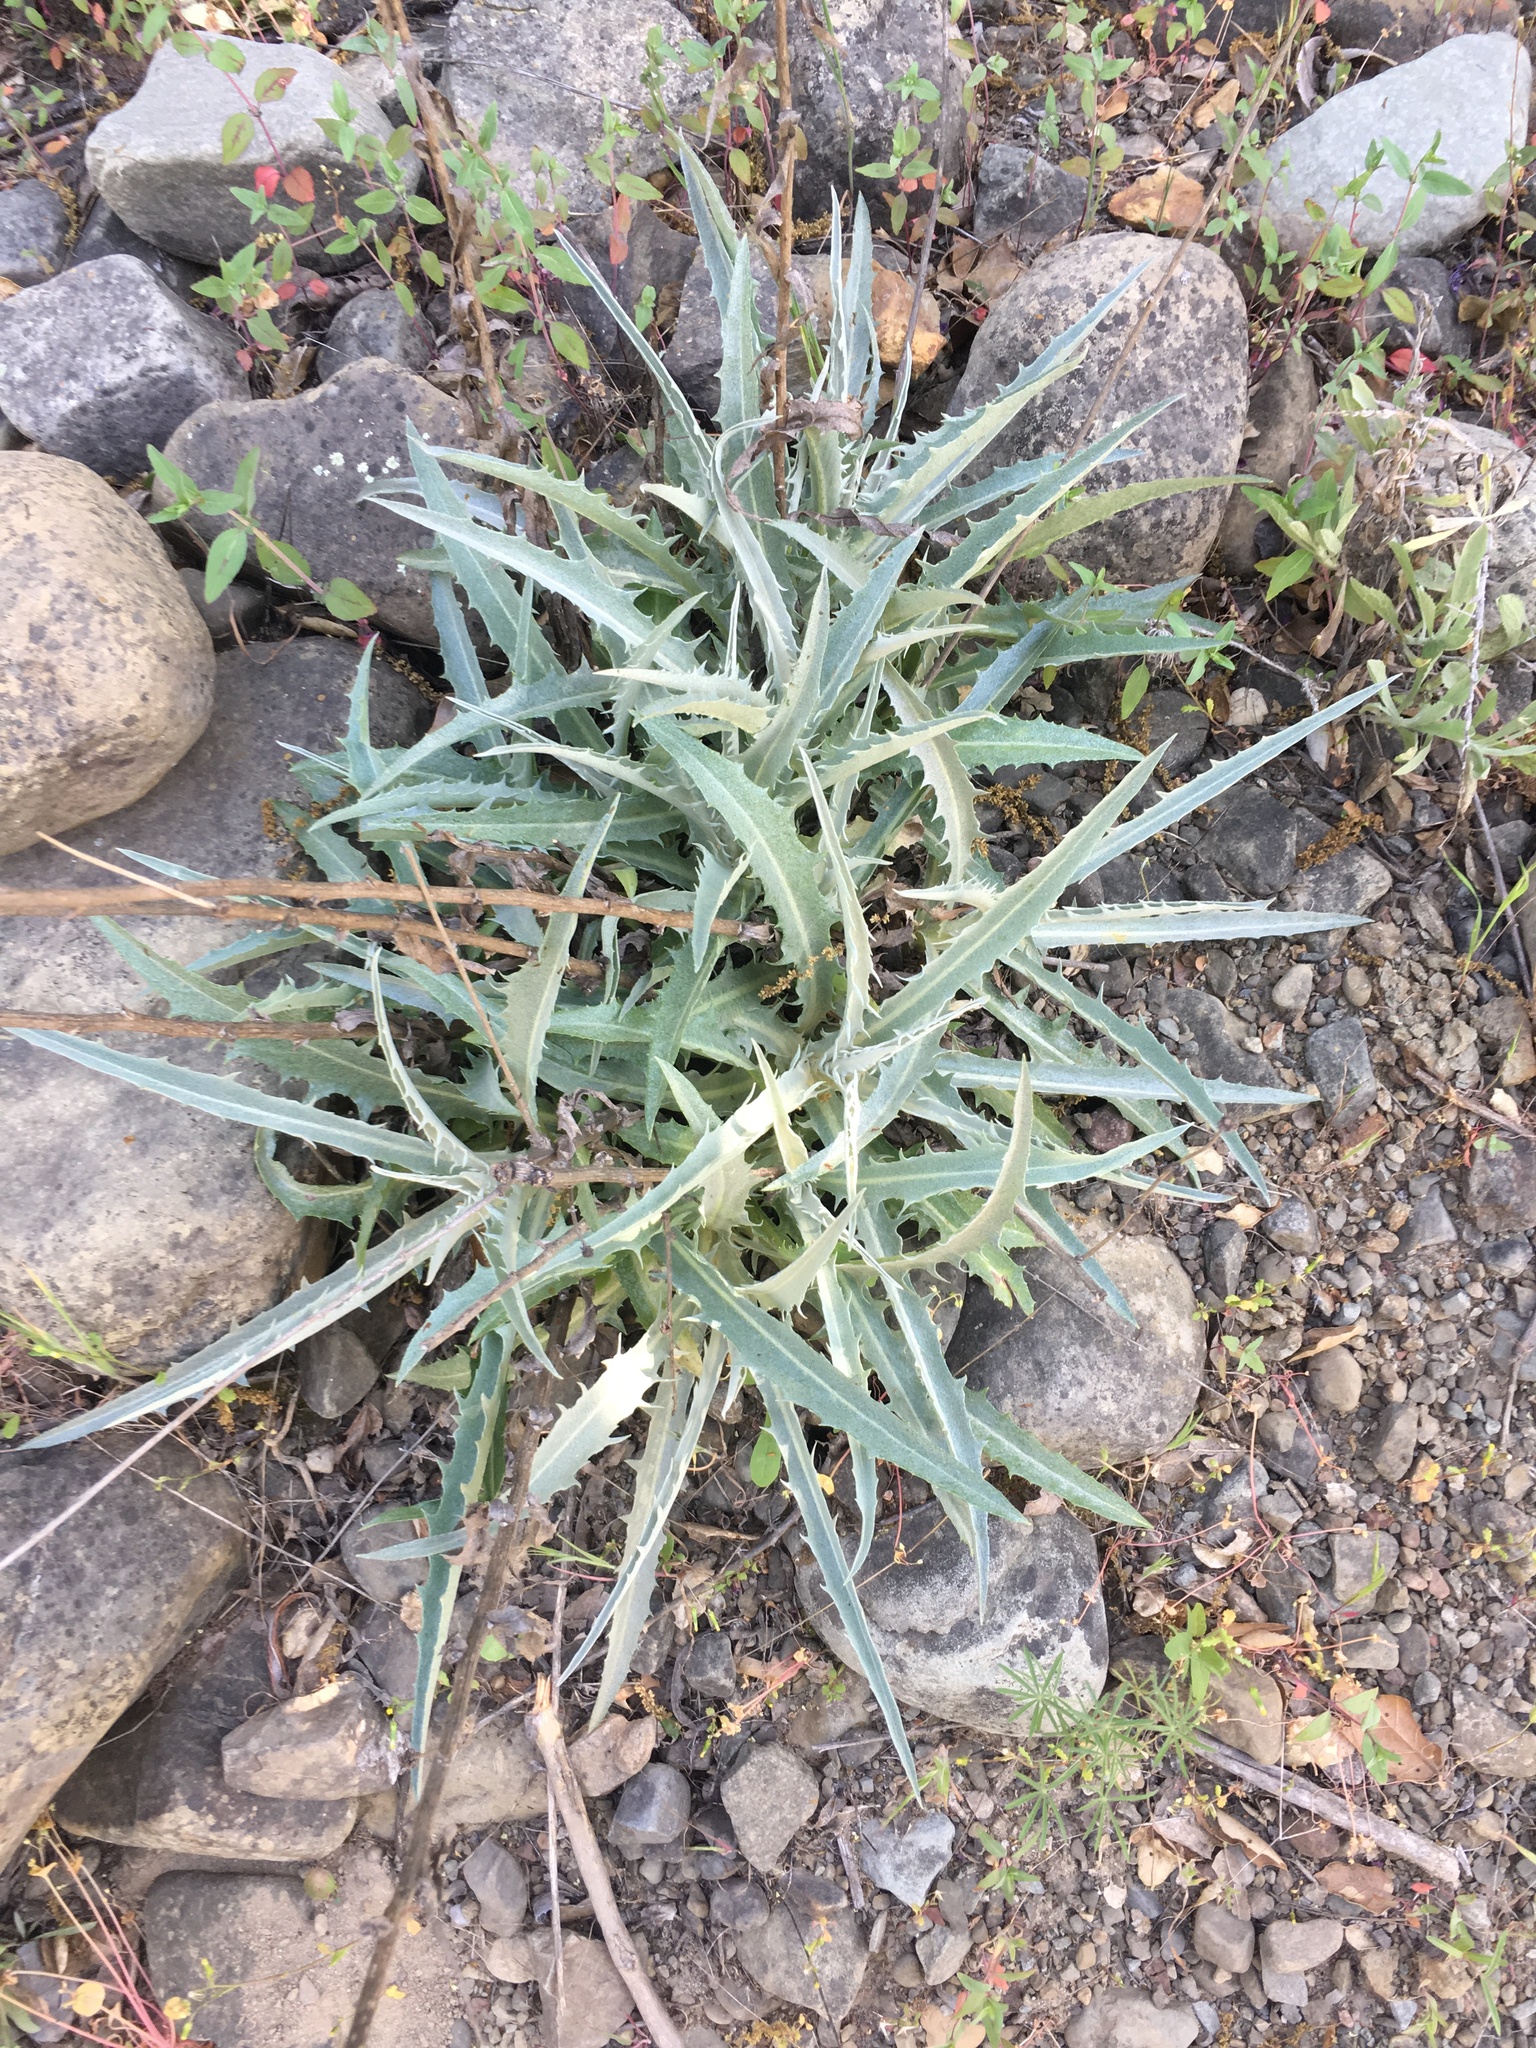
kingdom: Plantae
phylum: Tracheophyta
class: Magnoliopsida
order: Asterales
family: Asteraceae
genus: Stephanomeria
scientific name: Stephanomeria cichoriacea
